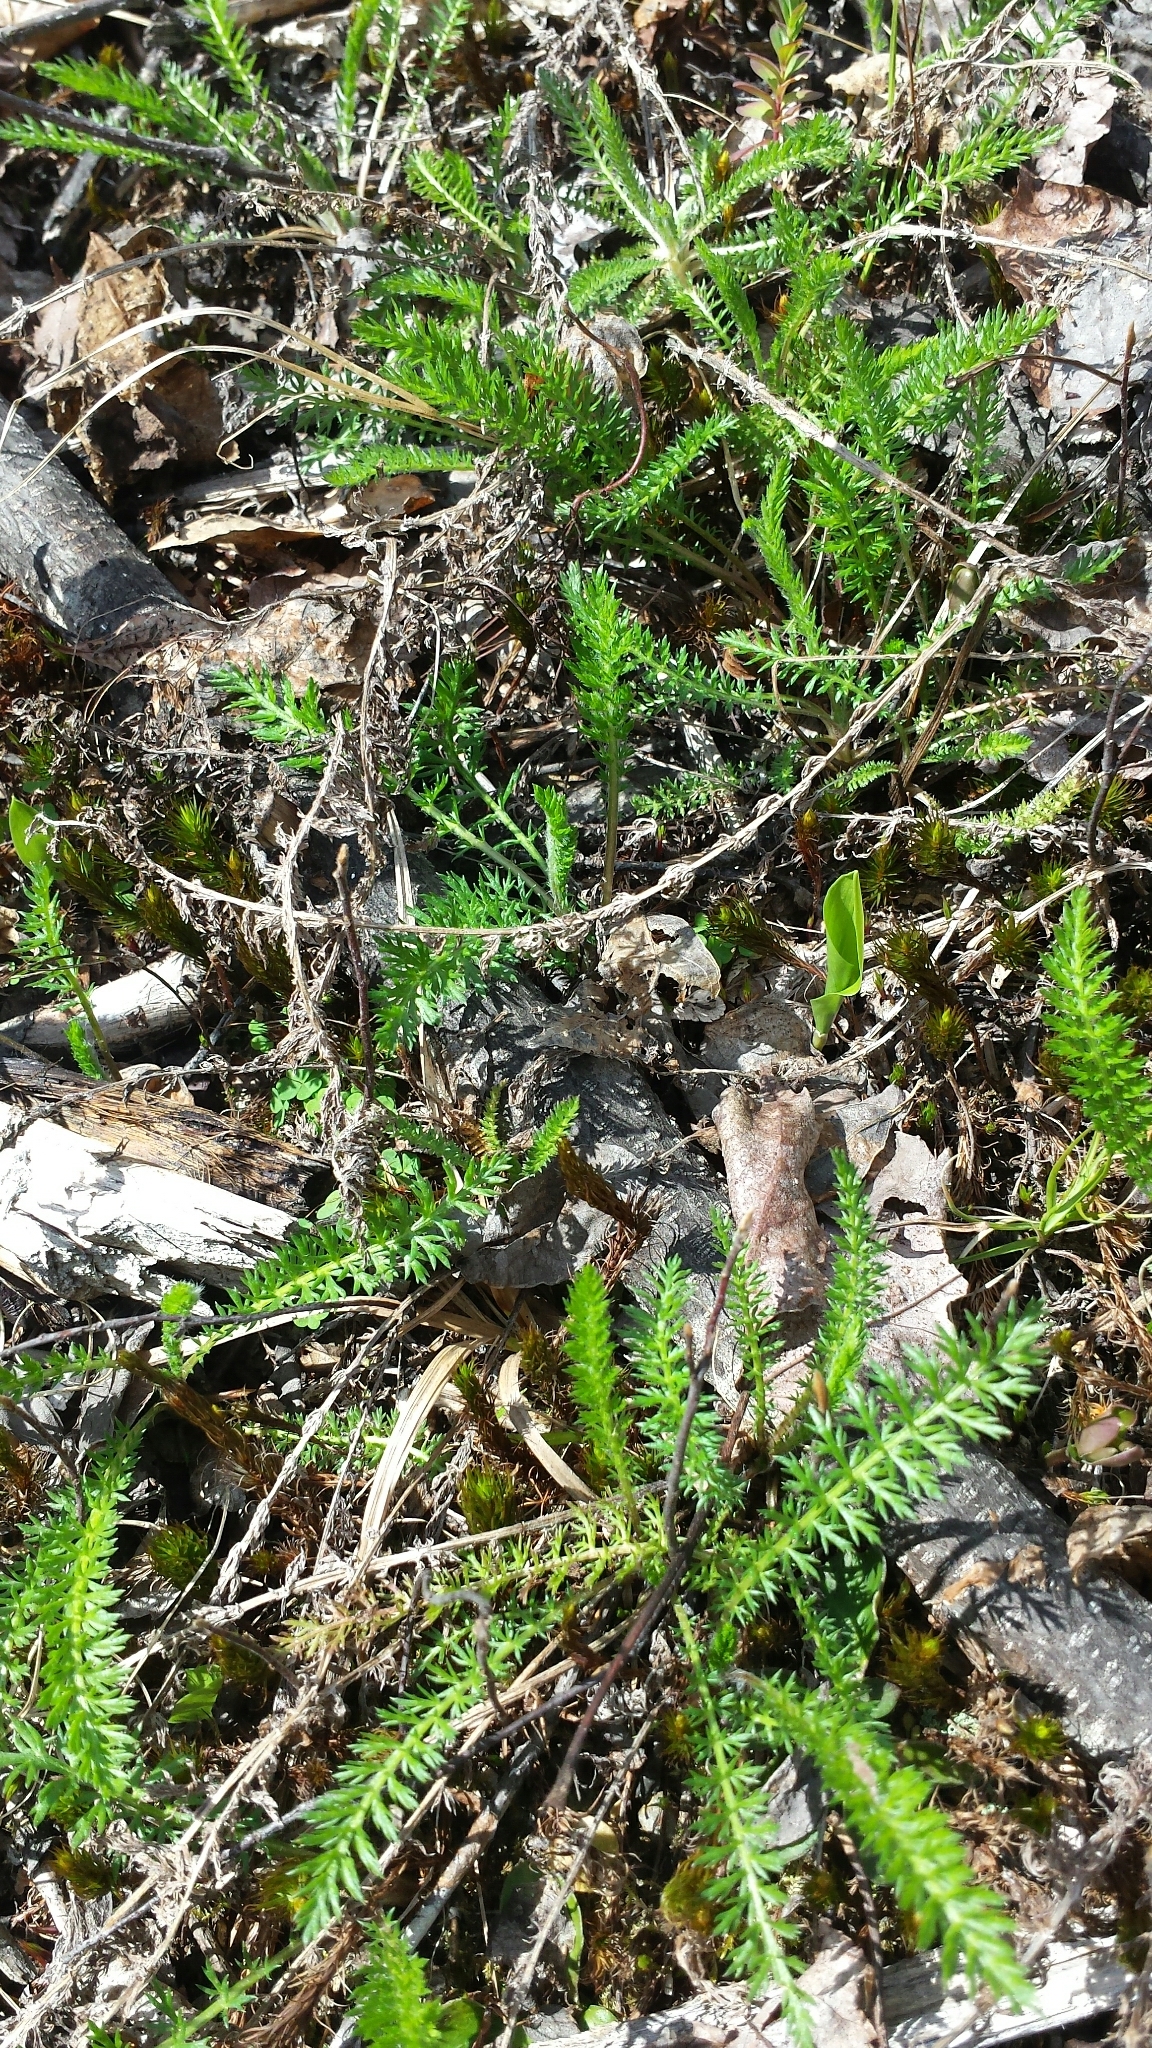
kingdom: Plantae
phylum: Tracheophyta
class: Magnoliopsida
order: Asterales
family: Asteraceae
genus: Achillea
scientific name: Achillea millefolium
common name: Yarrow
